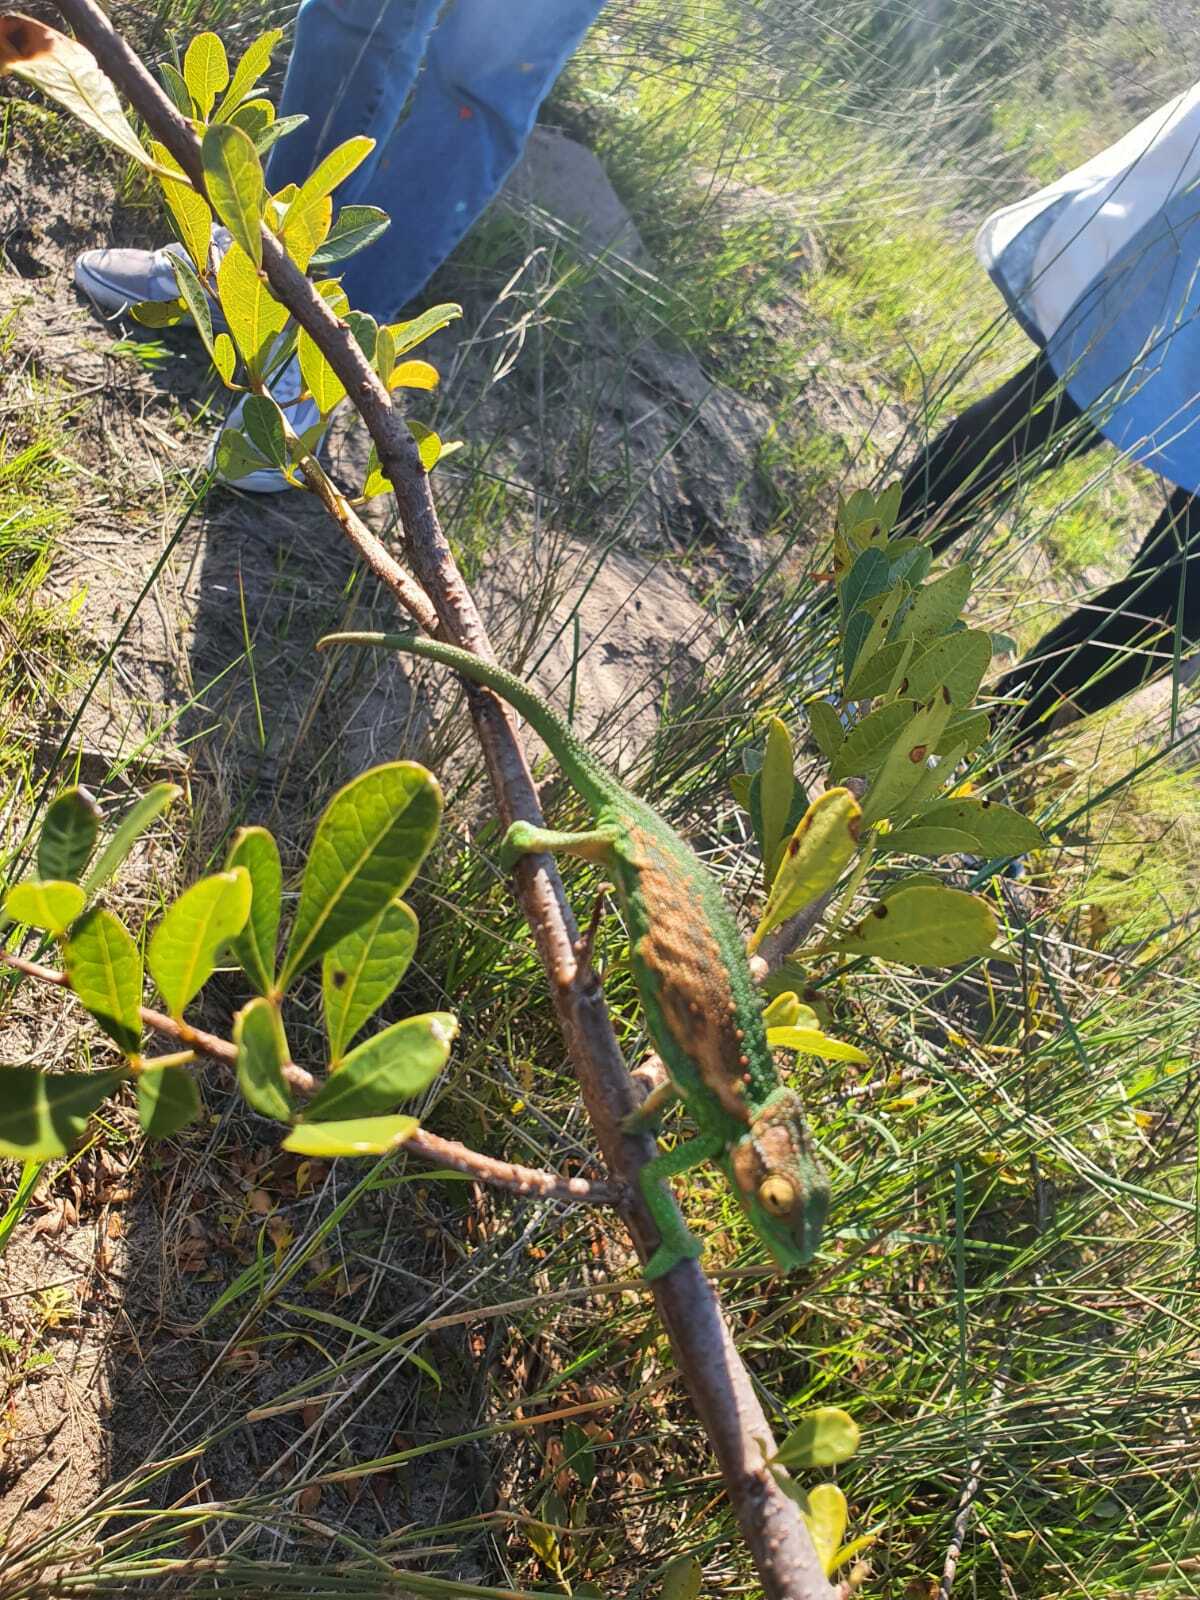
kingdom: Animalia
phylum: Chordata
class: Squamata
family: Chamaeleonidae
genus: Bradypodion
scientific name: Bradypodion pumilum
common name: Cape dwarf chameleon
